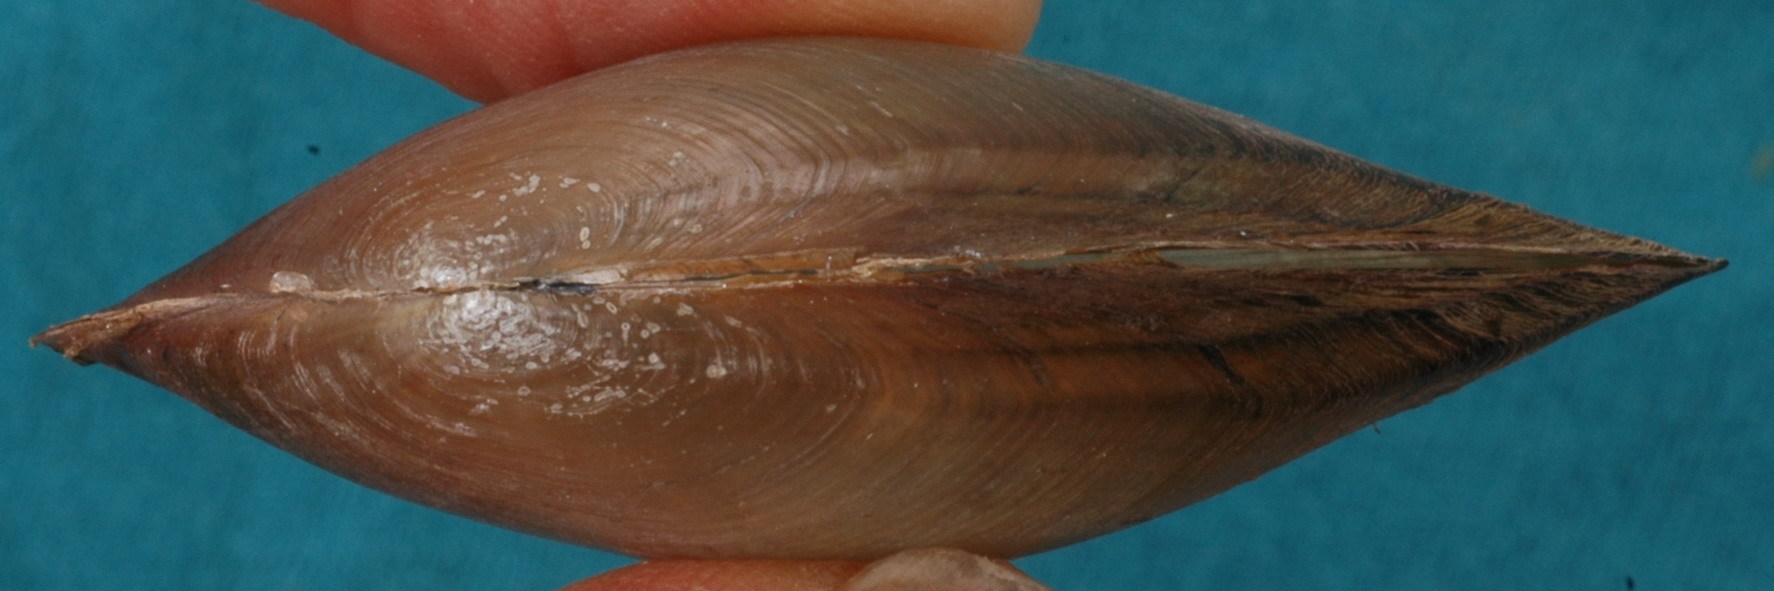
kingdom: Animalia
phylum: Mollusca
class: Bivalvia
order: Unionida
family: Unionidae
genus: Utterbackia
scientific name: Utterbackia imbecillis
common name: Paper pondshell
